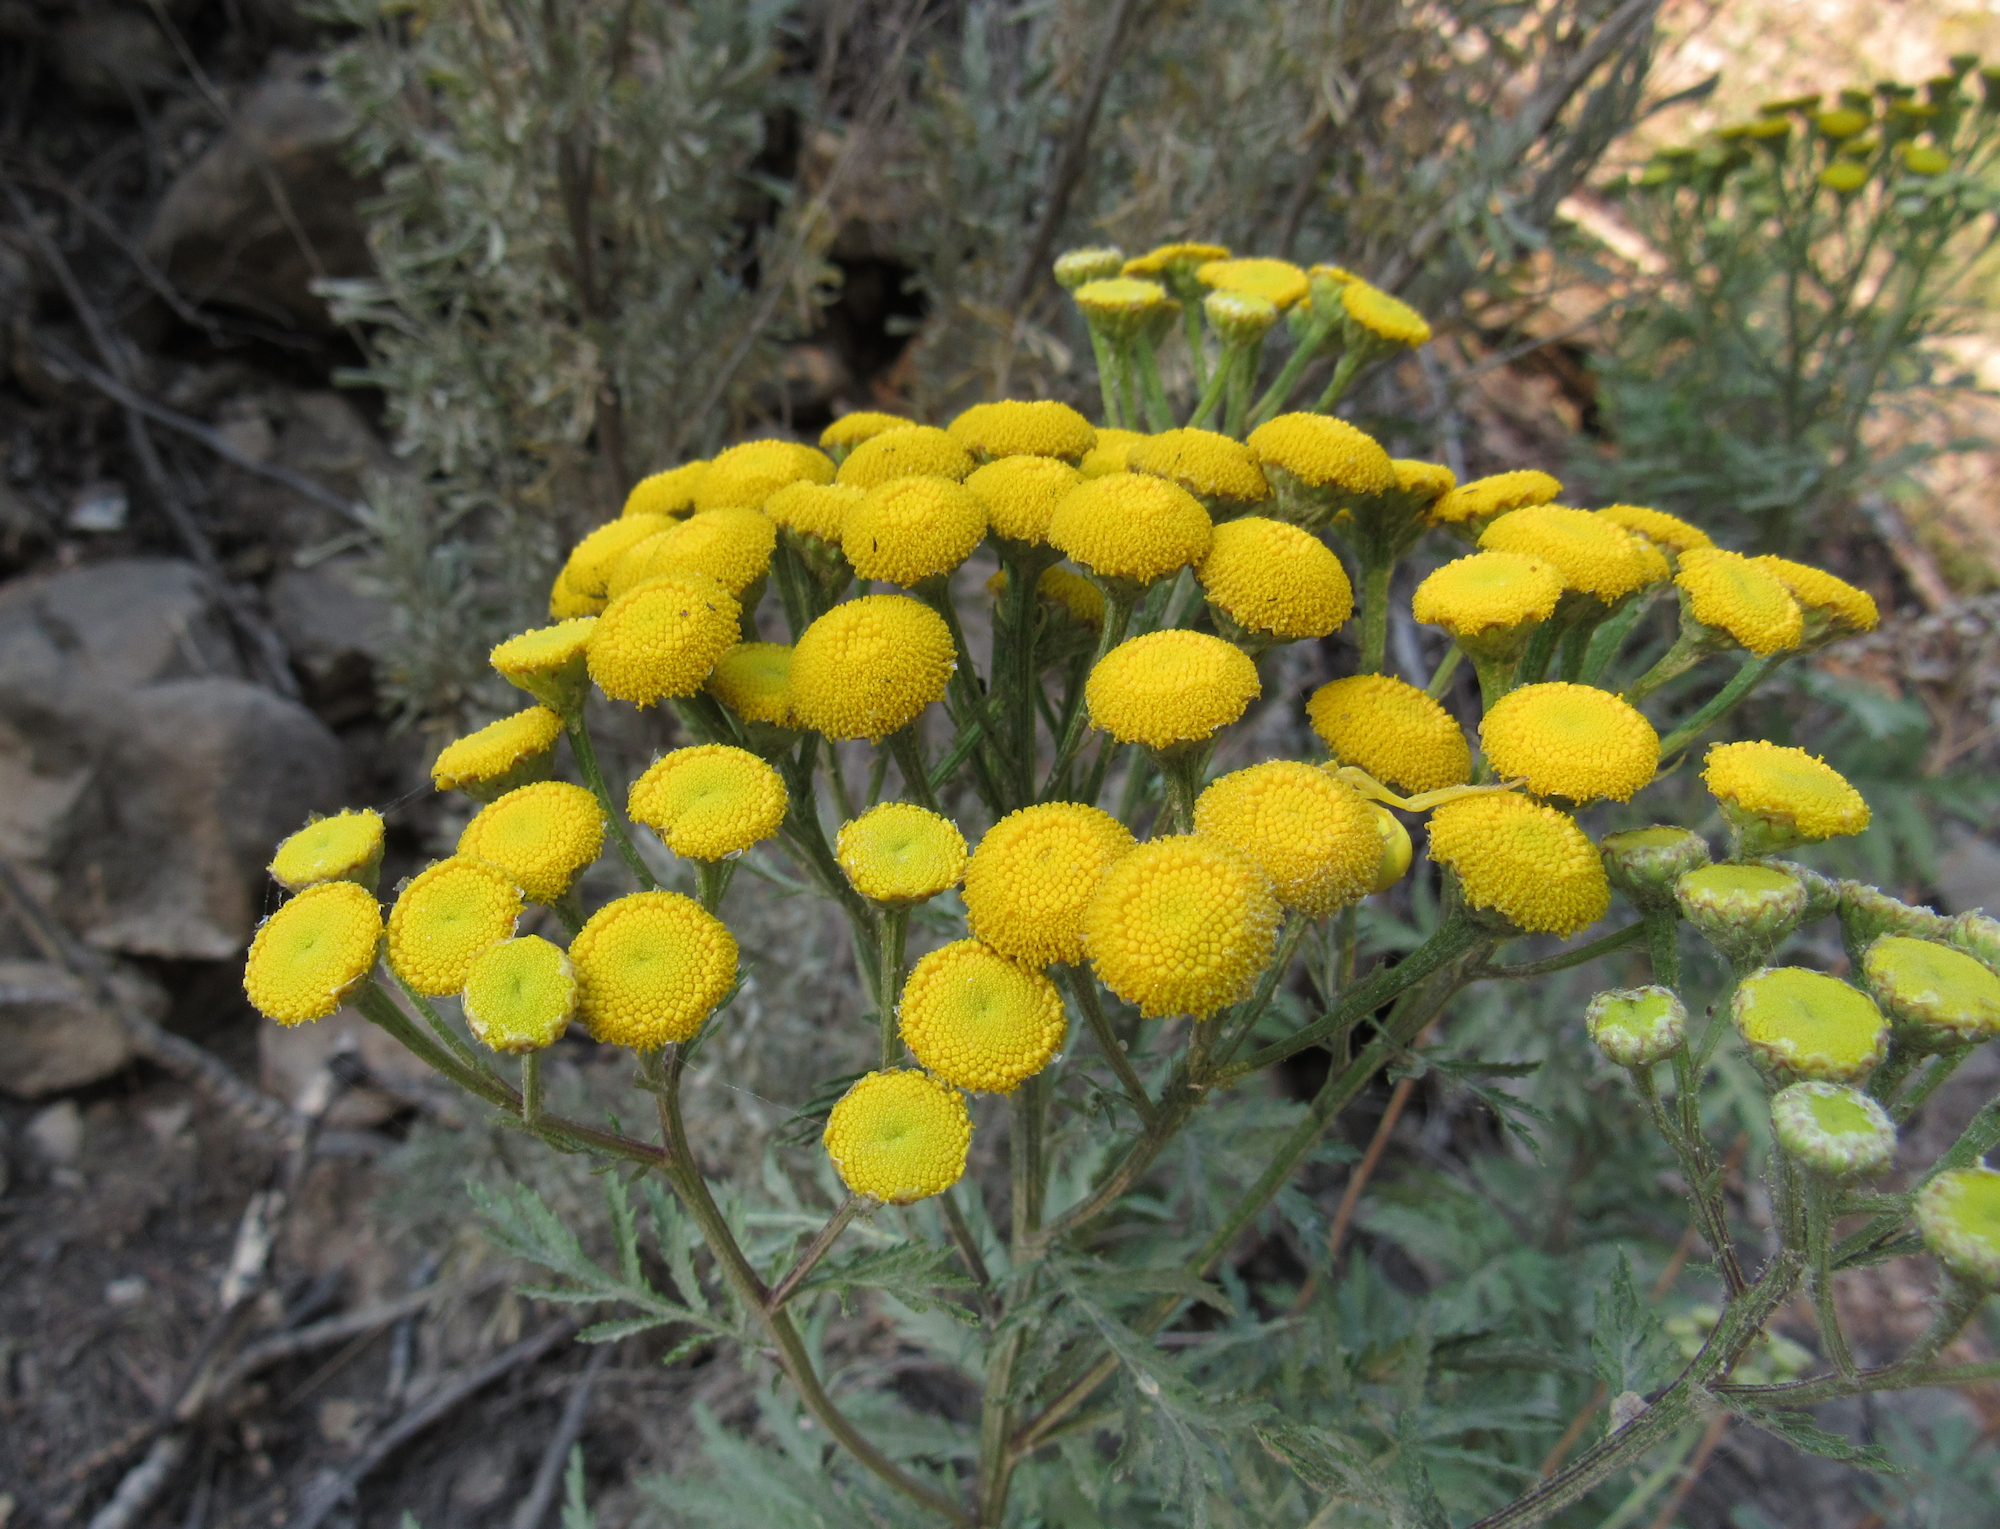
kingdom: Plantae
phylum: Tracheophyta
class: Magnoliopsida
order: Asterales
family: Asteraceae
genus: Tanacetum
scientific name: Tanacetum vulgare
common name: Common tansy
